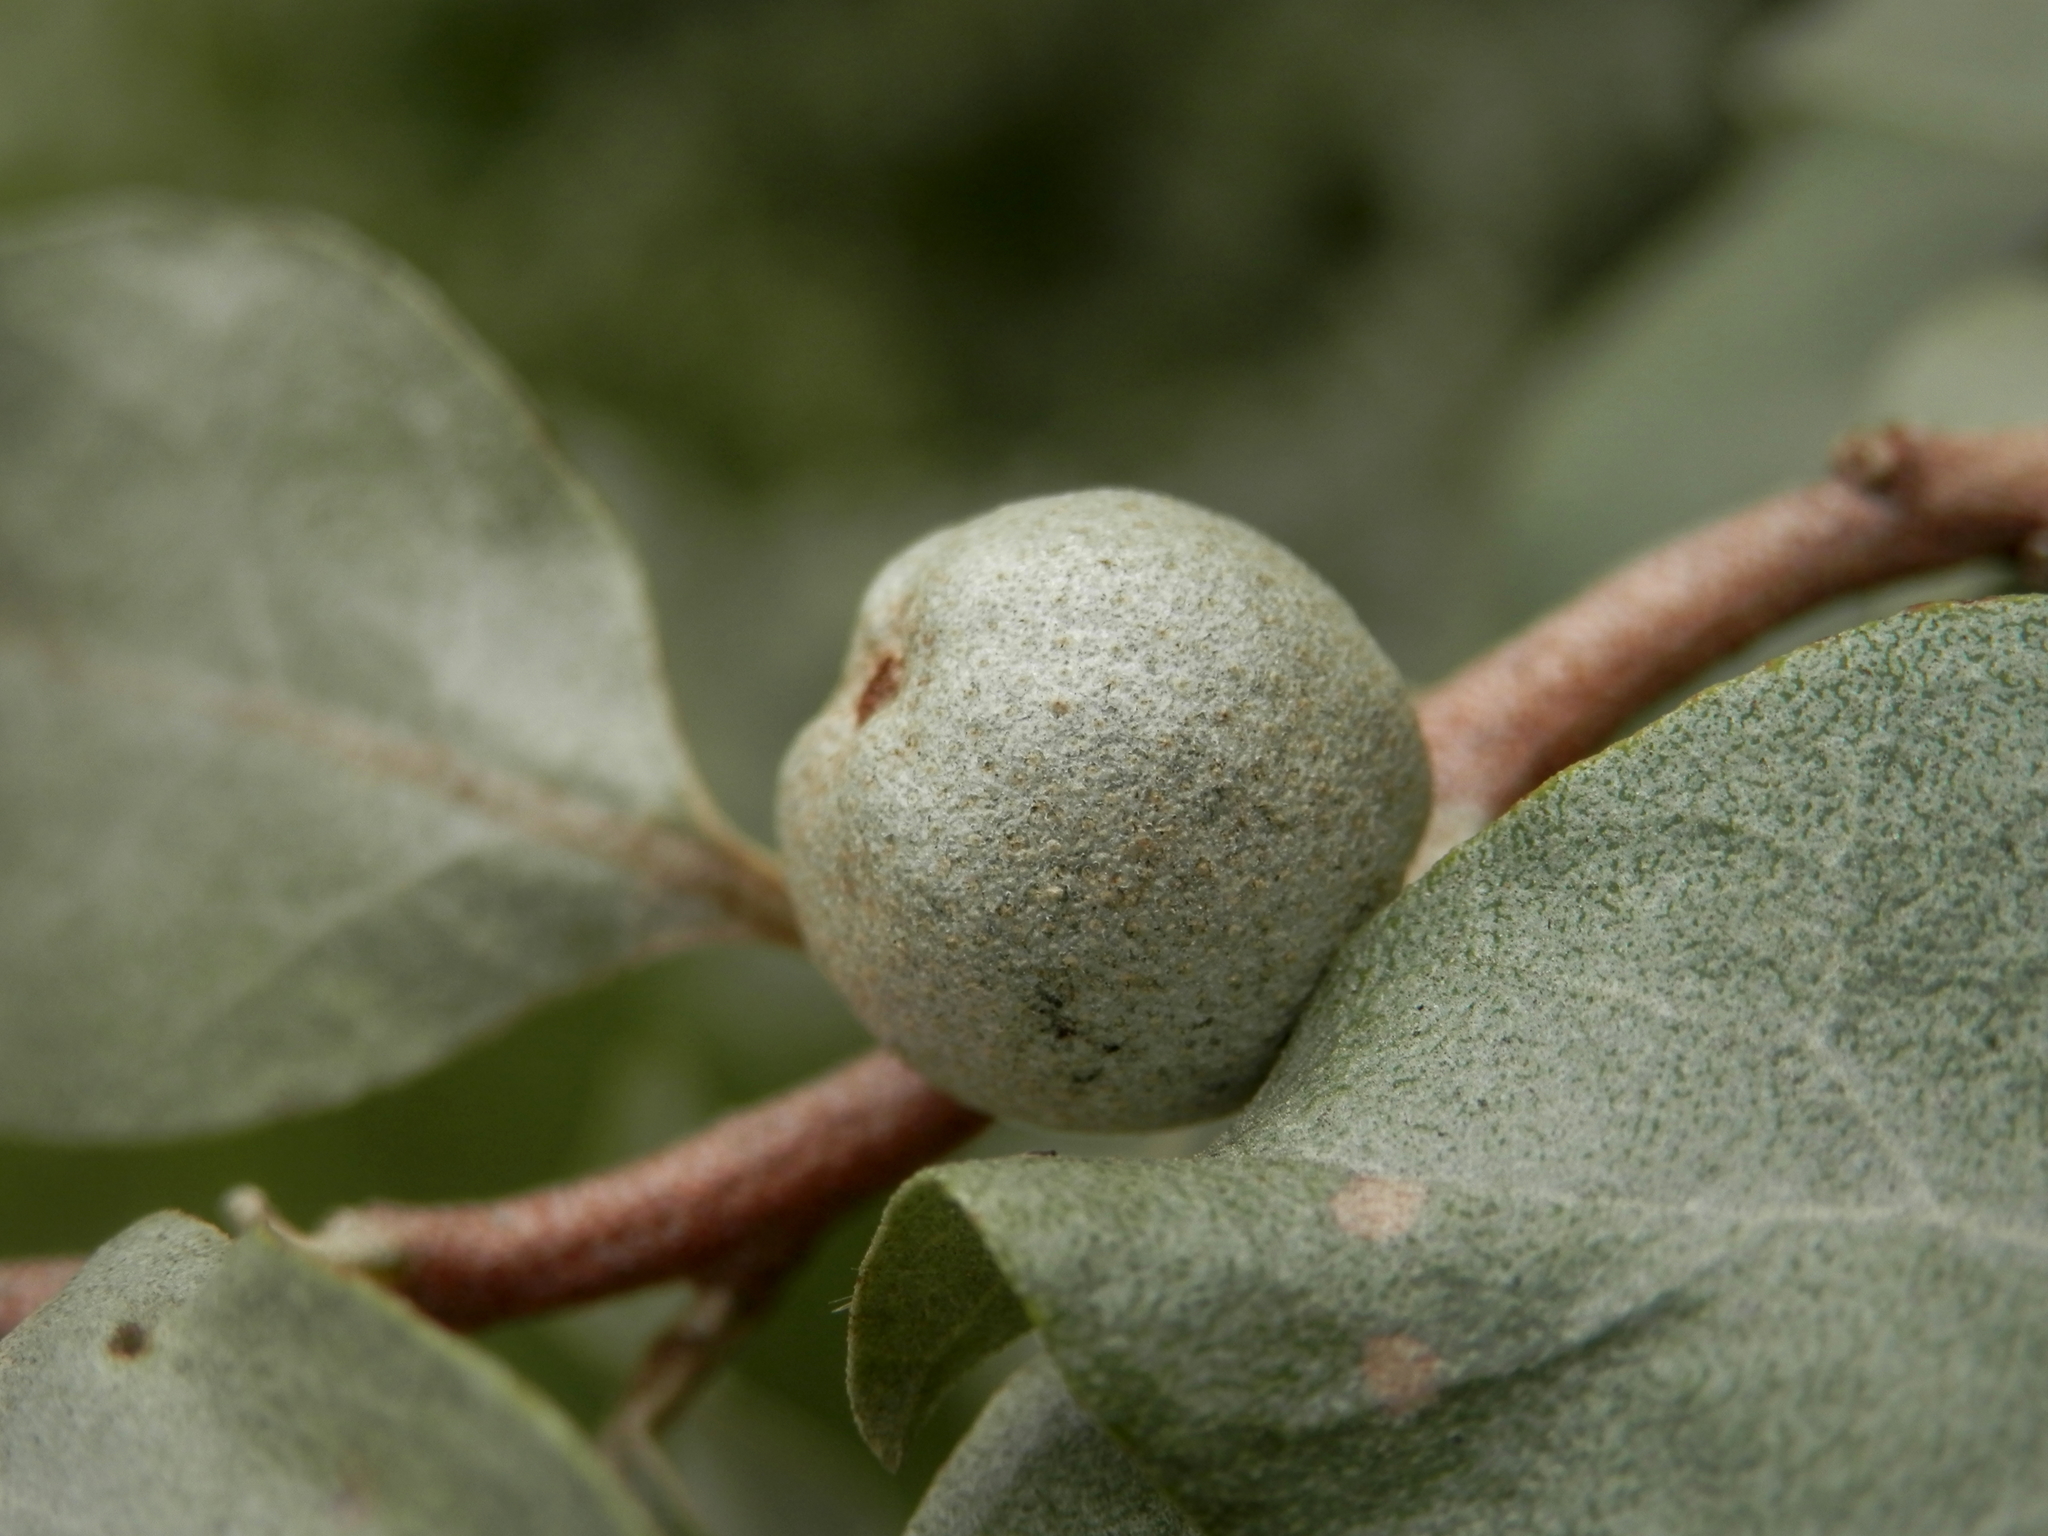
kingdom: Plantae
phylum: Tracheophyta
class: Magnoliopsida
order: Rosales
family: Elaeagnaceae
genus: Elaeagnus
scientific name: Elaeagnus commutata
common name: Silverberry
